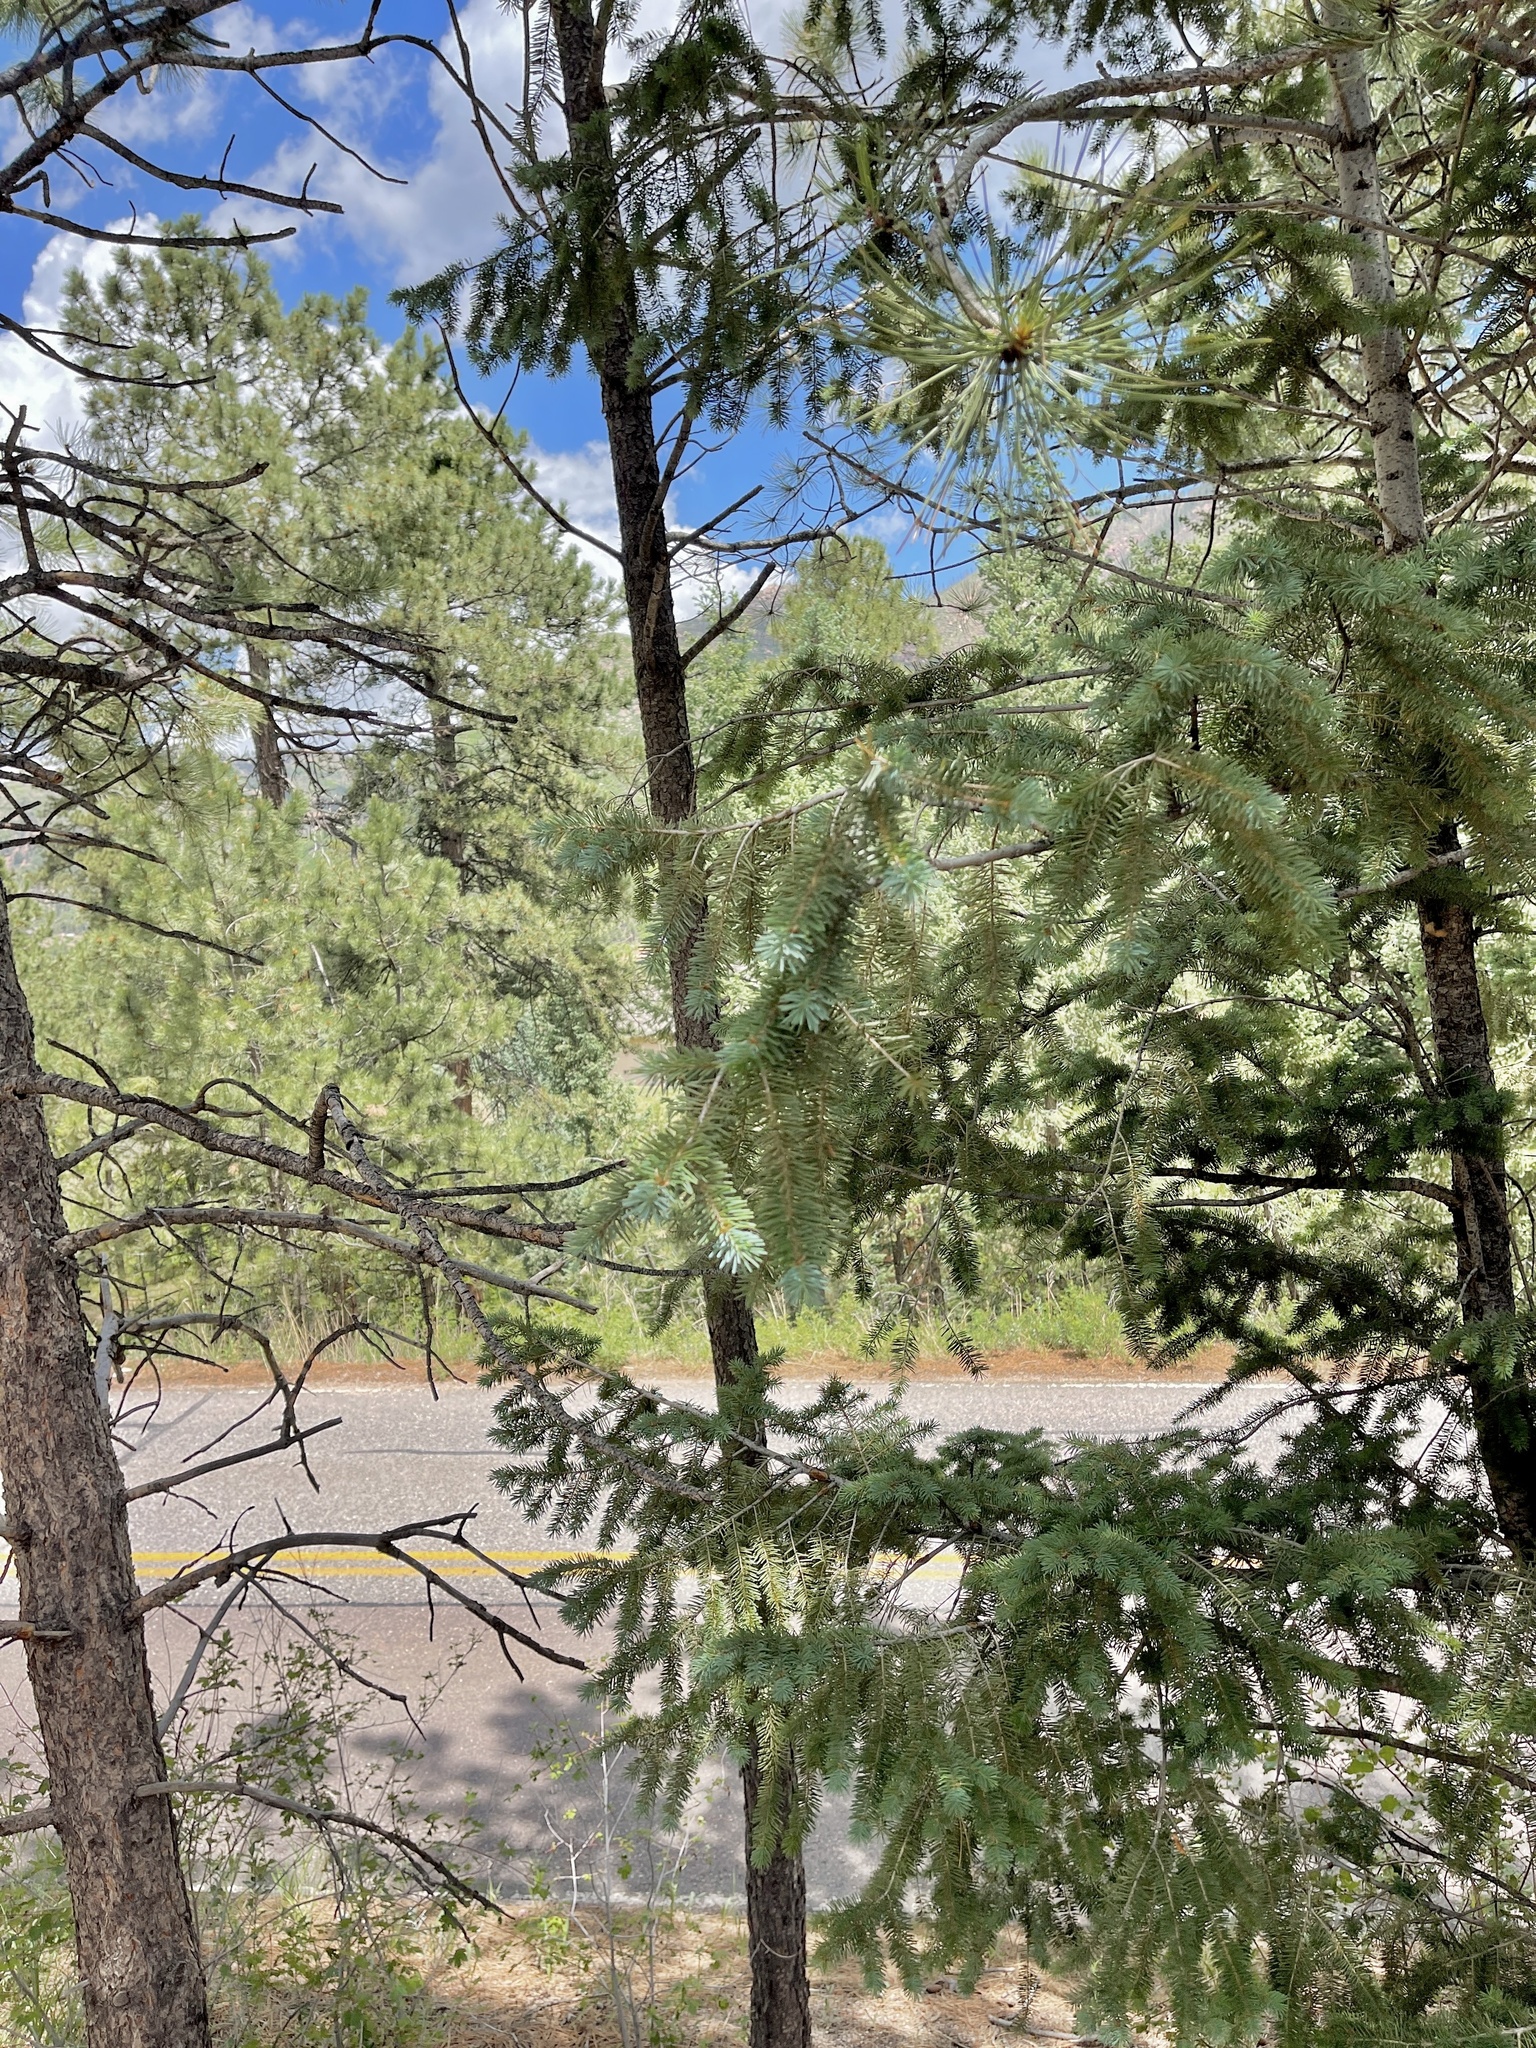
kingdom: Plantae
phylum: Tracheophyta
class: Pinopsida
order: Pinales
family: Pinaceae
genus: Pseudotsuga
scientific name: Pseudotsuga menziesii
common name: Douglas fir
